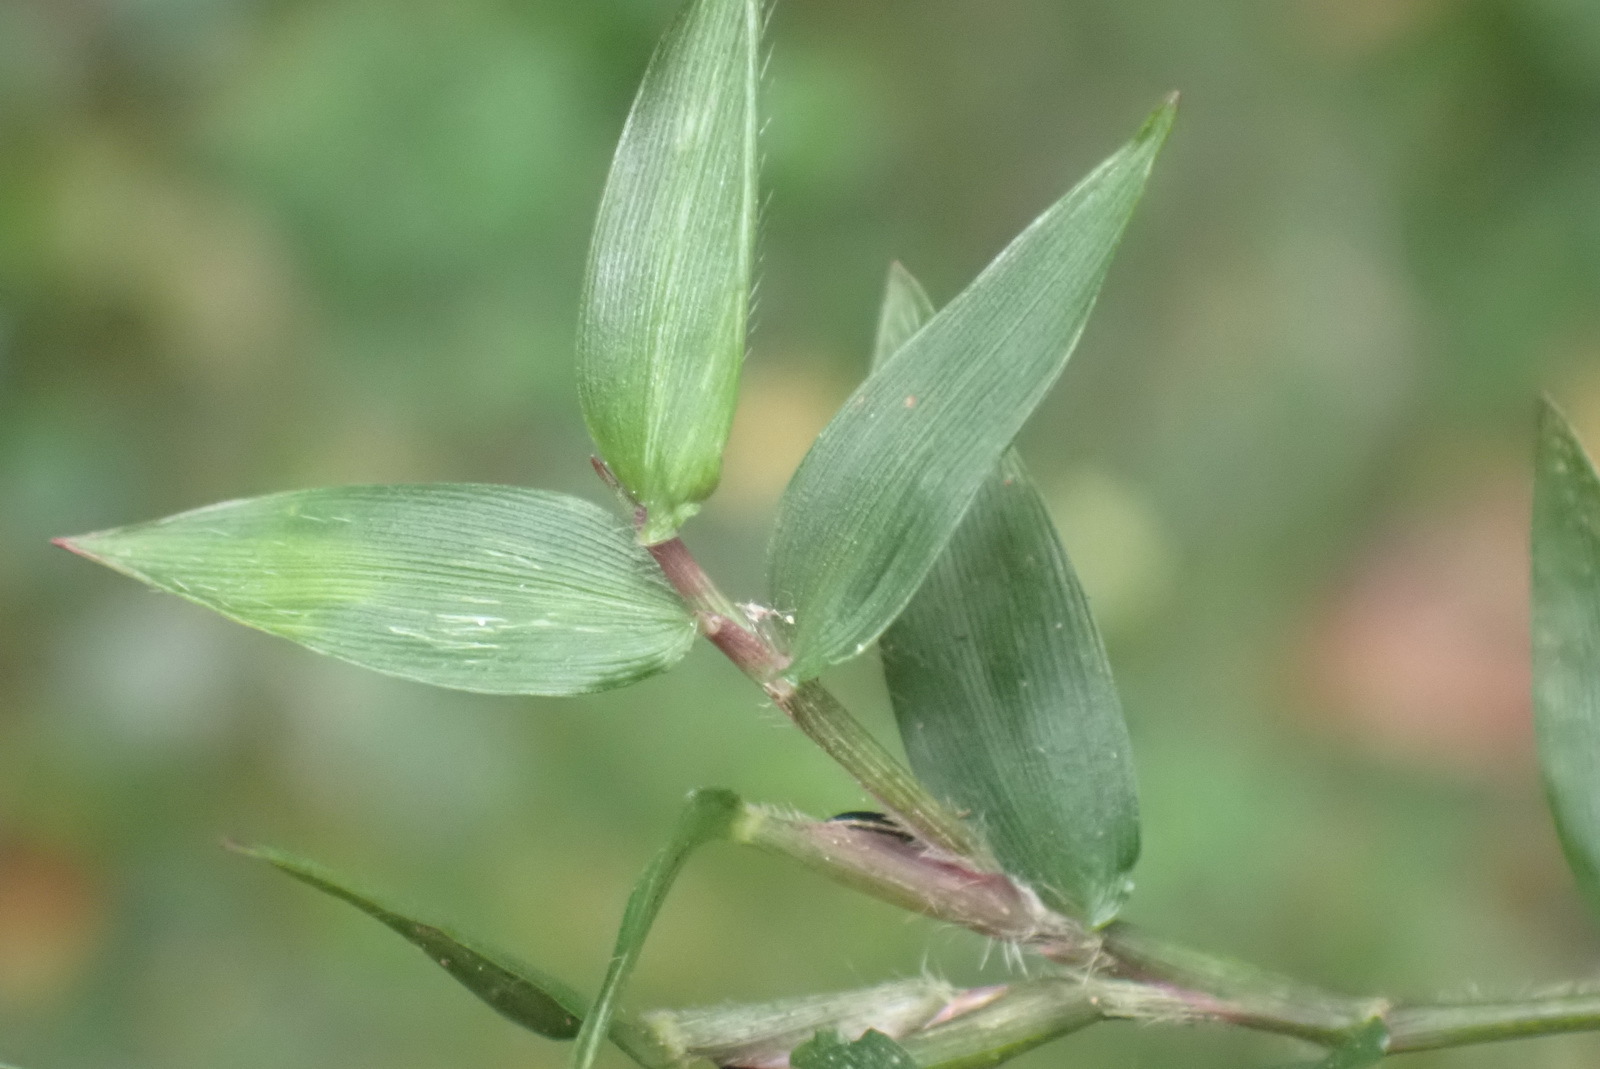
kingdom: Plantae
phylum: Tracheophyta
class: Liliopsida
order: Poales
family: Poaceae
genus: Oplismenus
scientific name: Oplismenus hirtellus
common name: Basketgrass
